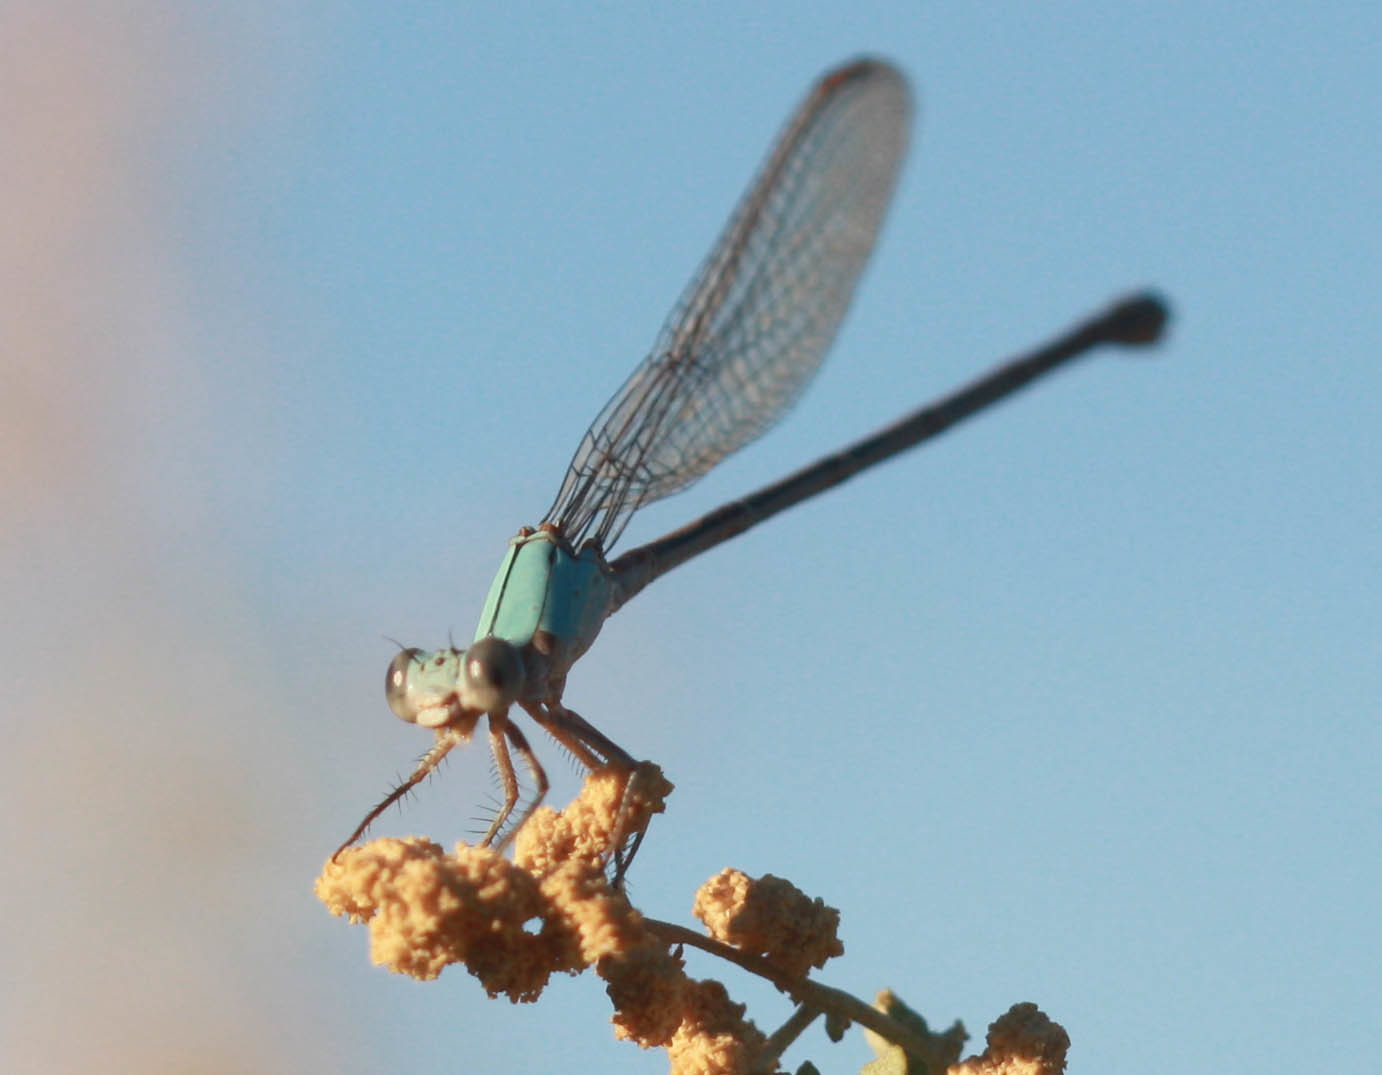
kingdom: Animalia
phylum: Arthropoda
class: Insecta
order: Odonata
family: Coenagrionidae
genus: Argia
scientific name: Argia moesta
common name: Powdered dancer
